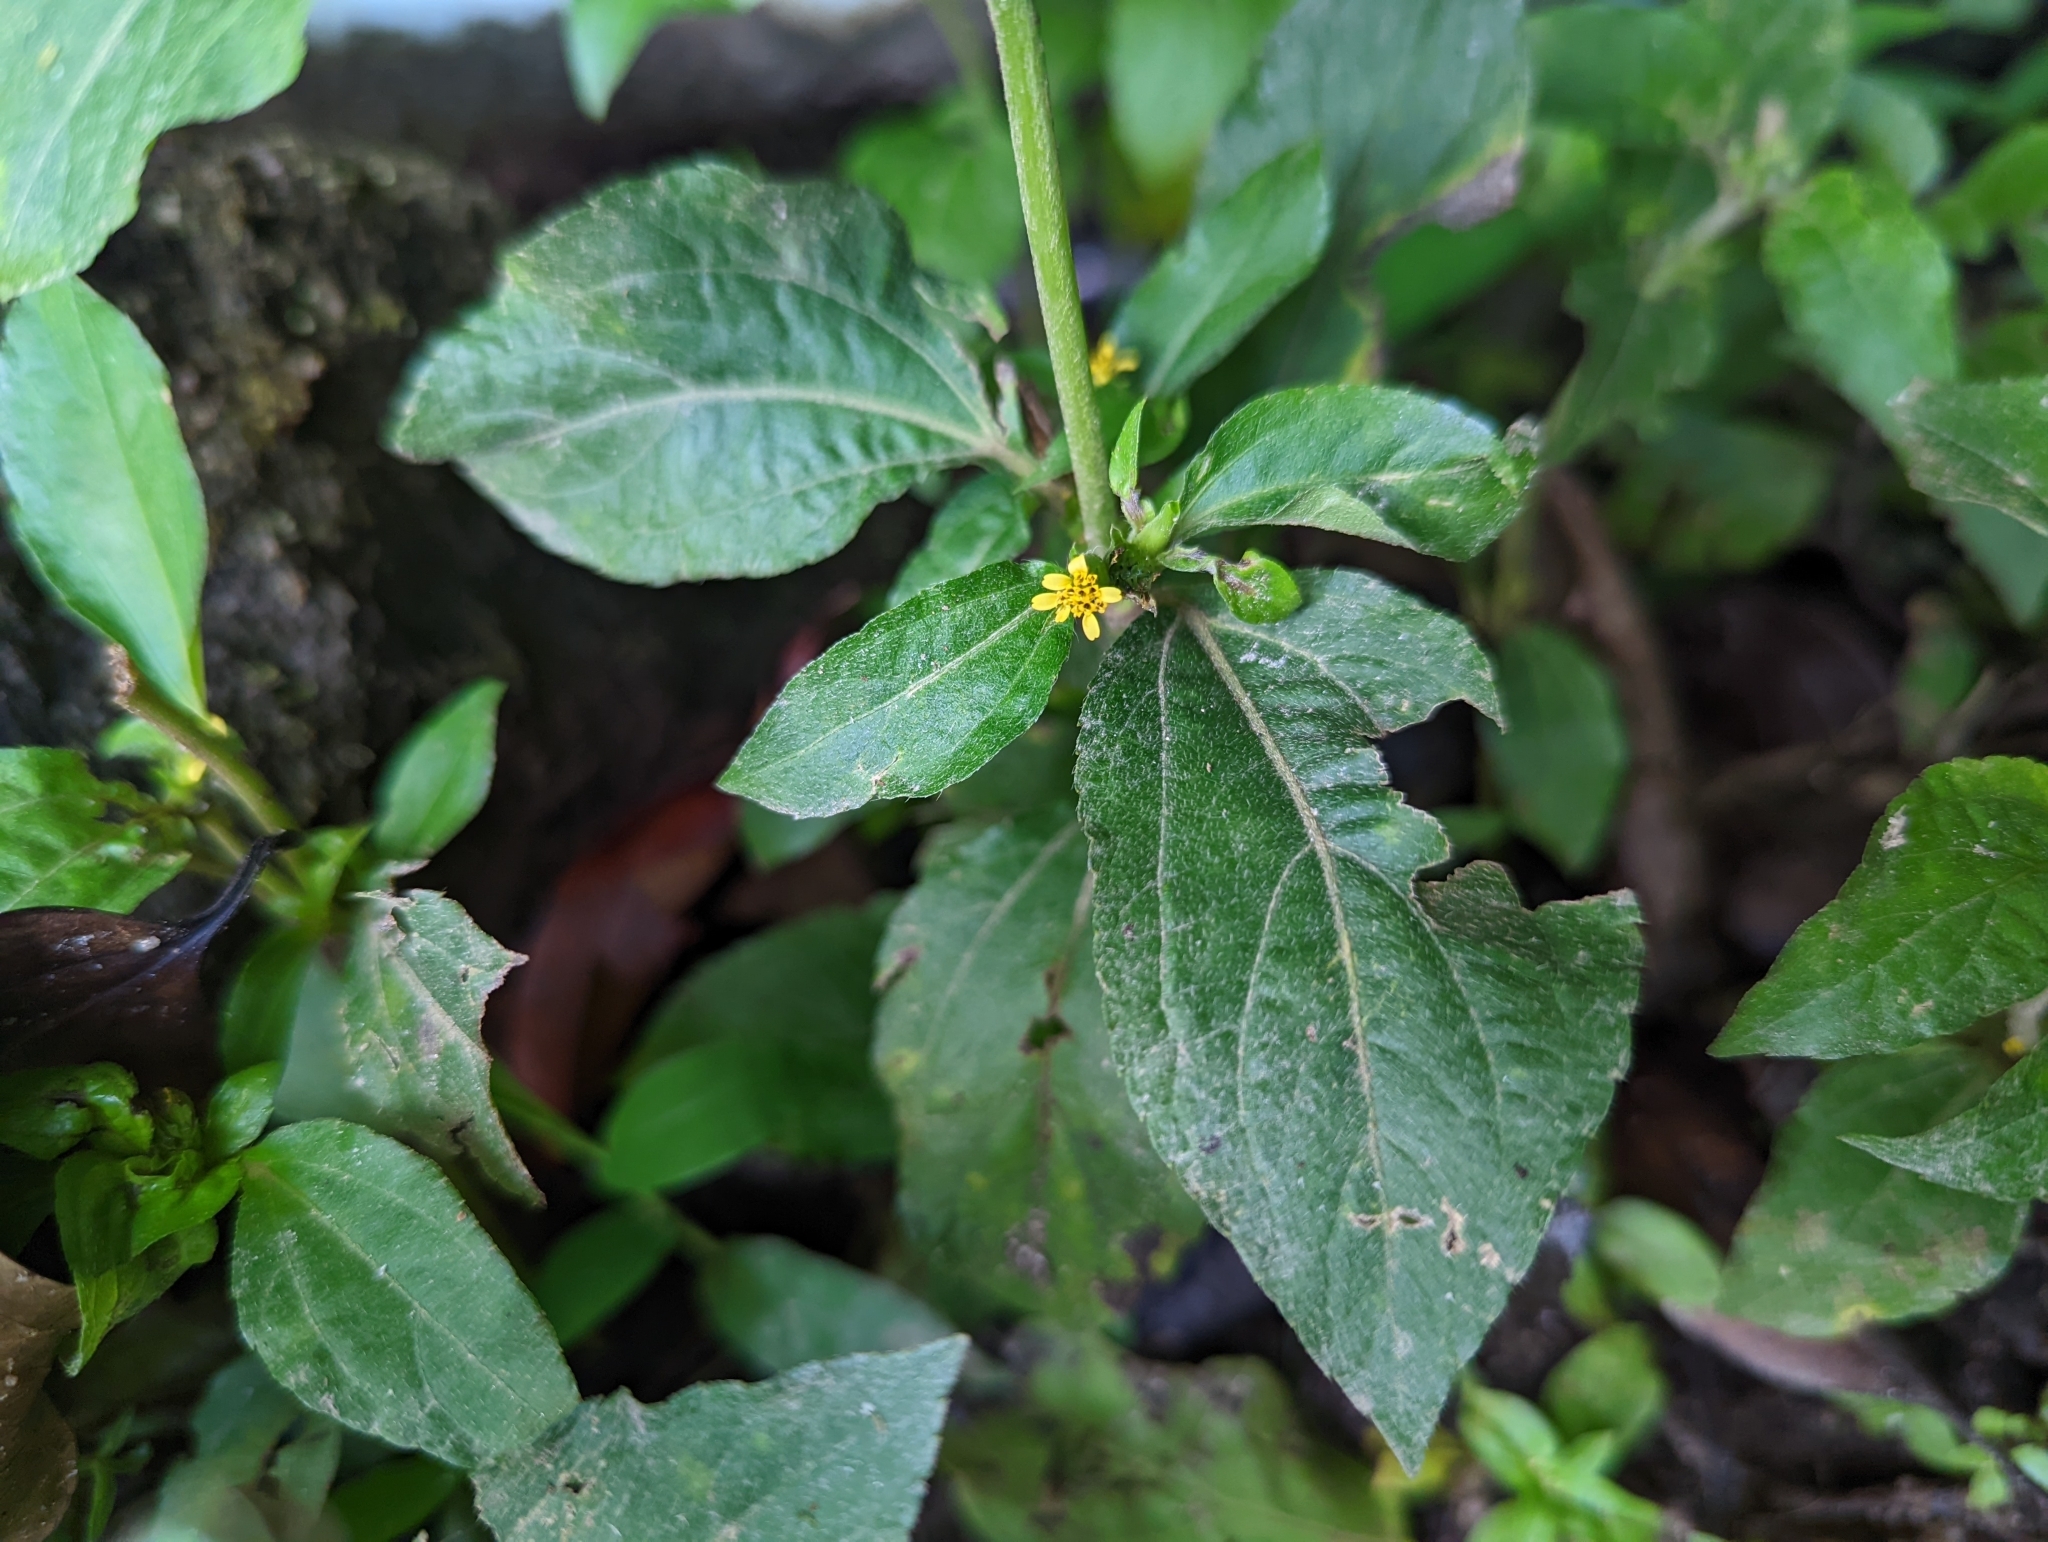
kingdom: Plantae
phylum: Tracheophyta
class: Magnoliopsida
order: Asterales
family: Asteraceae
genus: Synedrella
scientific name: Synedrella nodiflora
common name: Nodeweed
